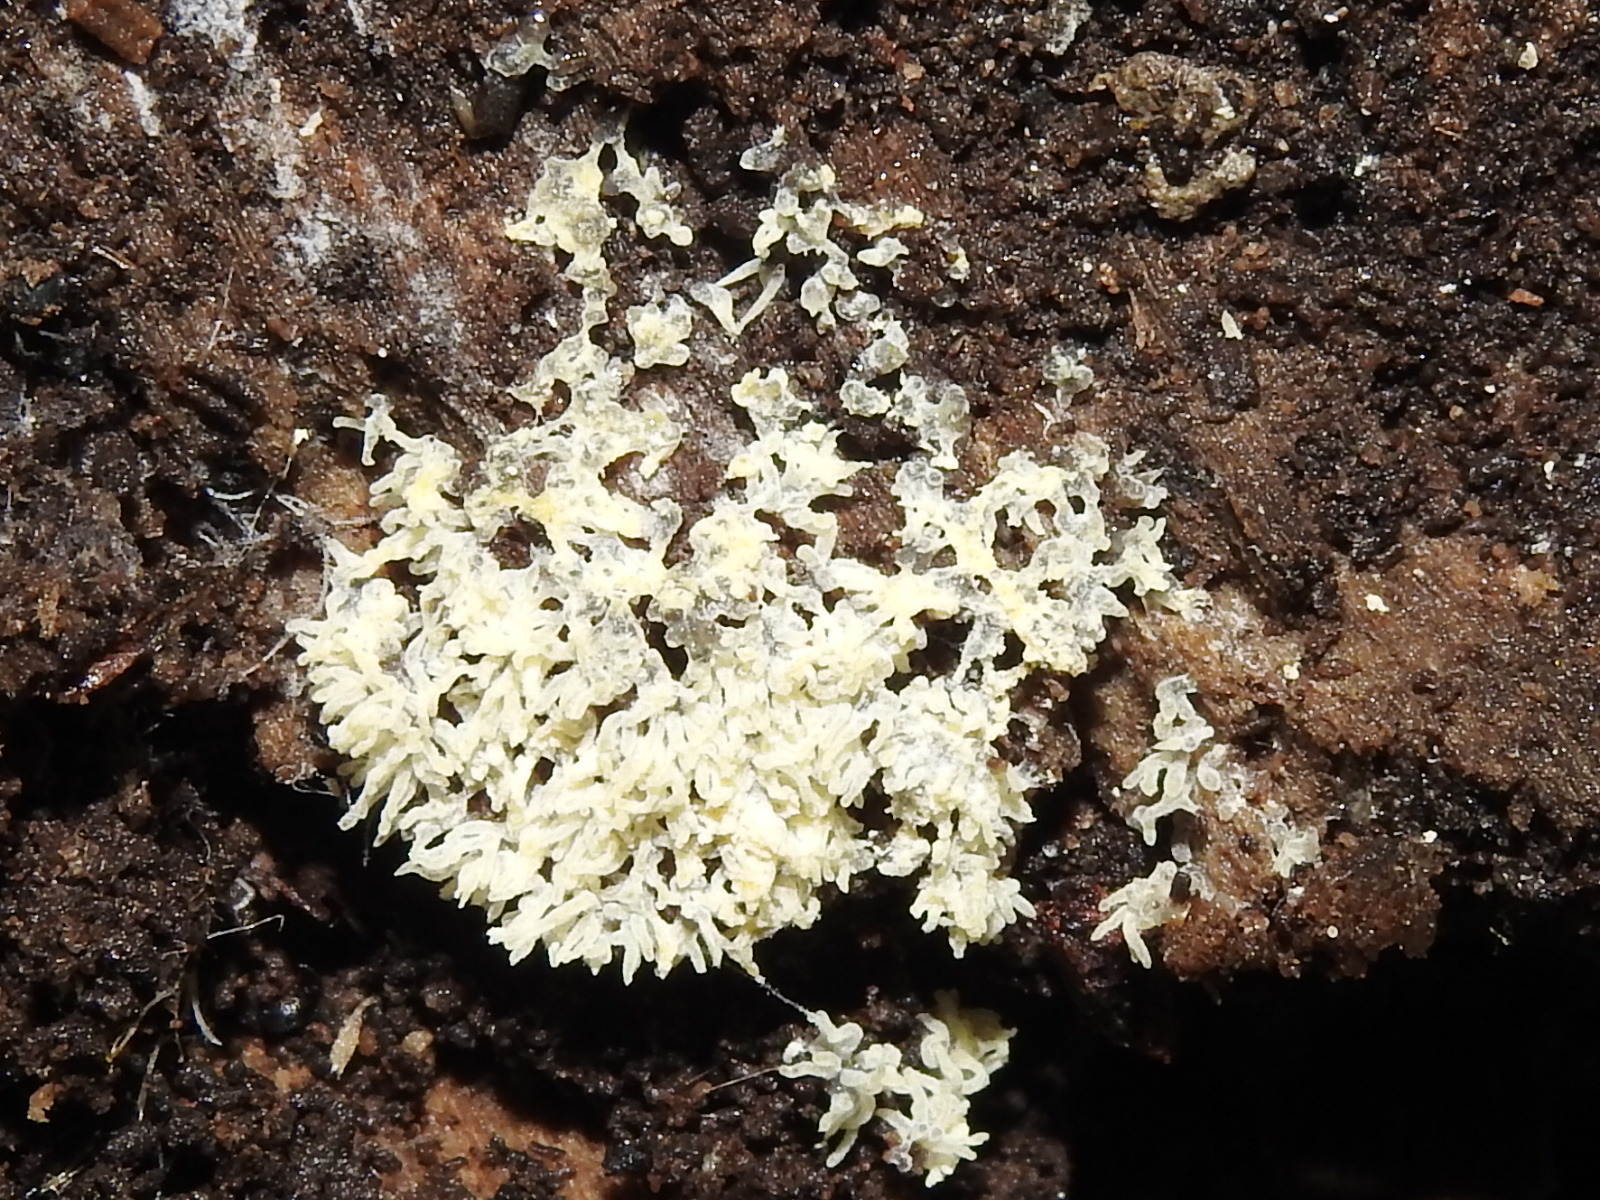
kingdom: Protozoa
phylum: Mycetozoa
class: Protosteliomycetes
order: Ceratiomyxales
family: Ceratiomyxaceae
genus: Ceratiomyxa
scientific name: Ceratiomyxa fruticulosa
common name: Honeycomb coral slime mold
